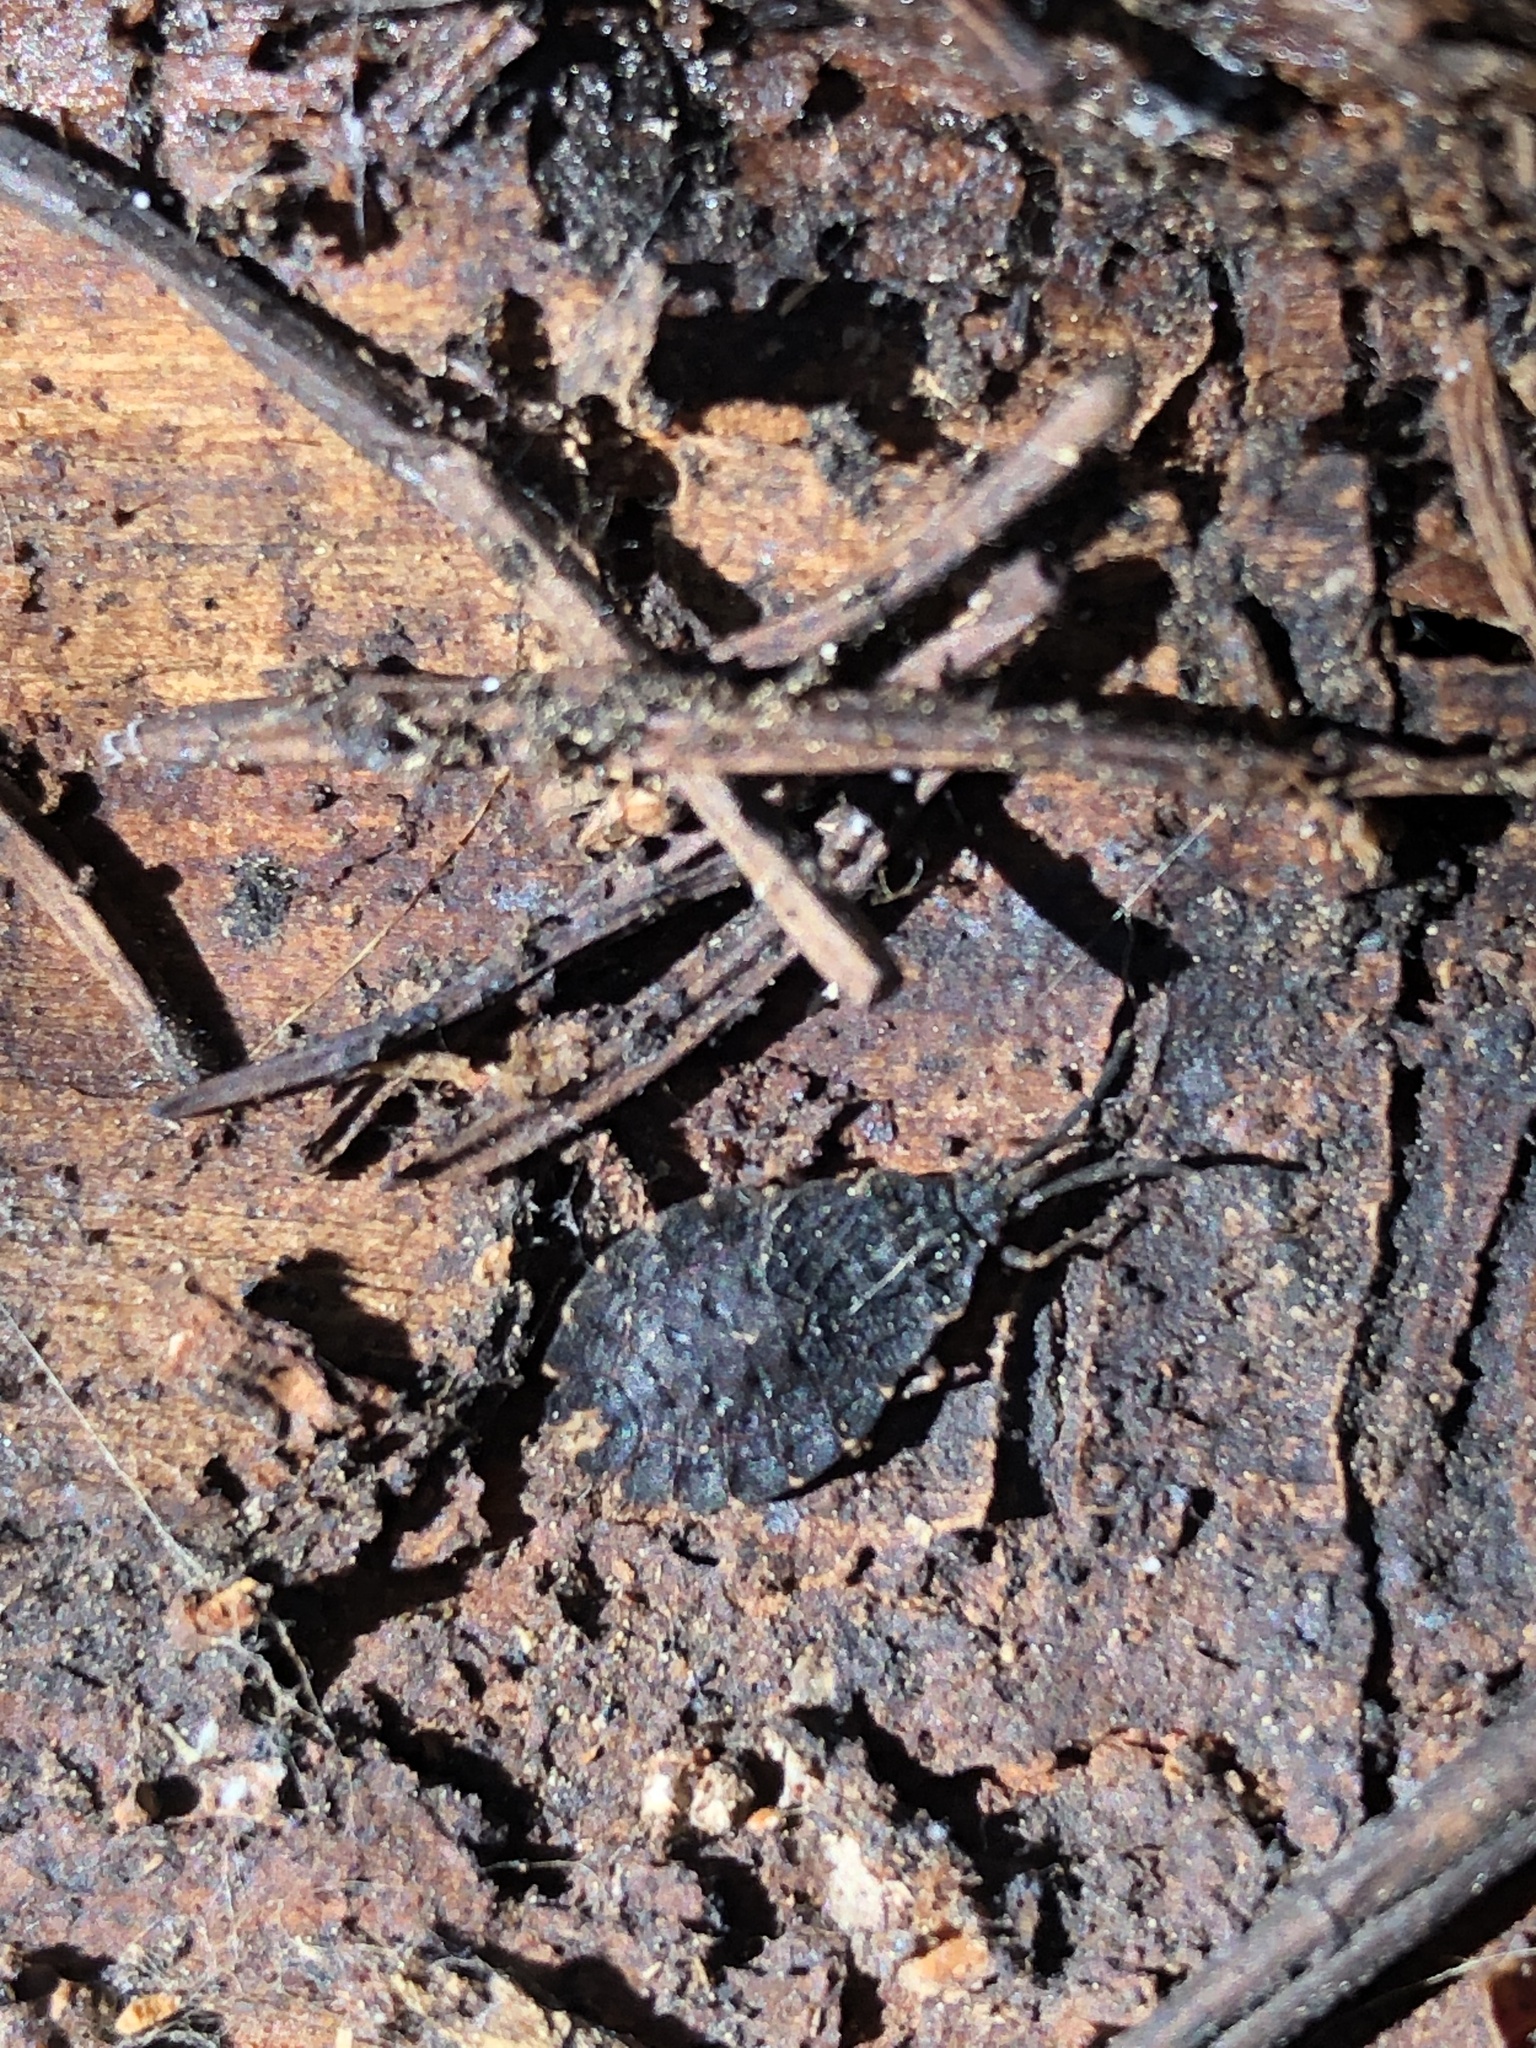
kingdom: Animalia
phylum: Arthropoda
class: Insecta
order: Hemiptera
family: Aradidae
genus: Aradus
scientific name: Aradus heidemanni
